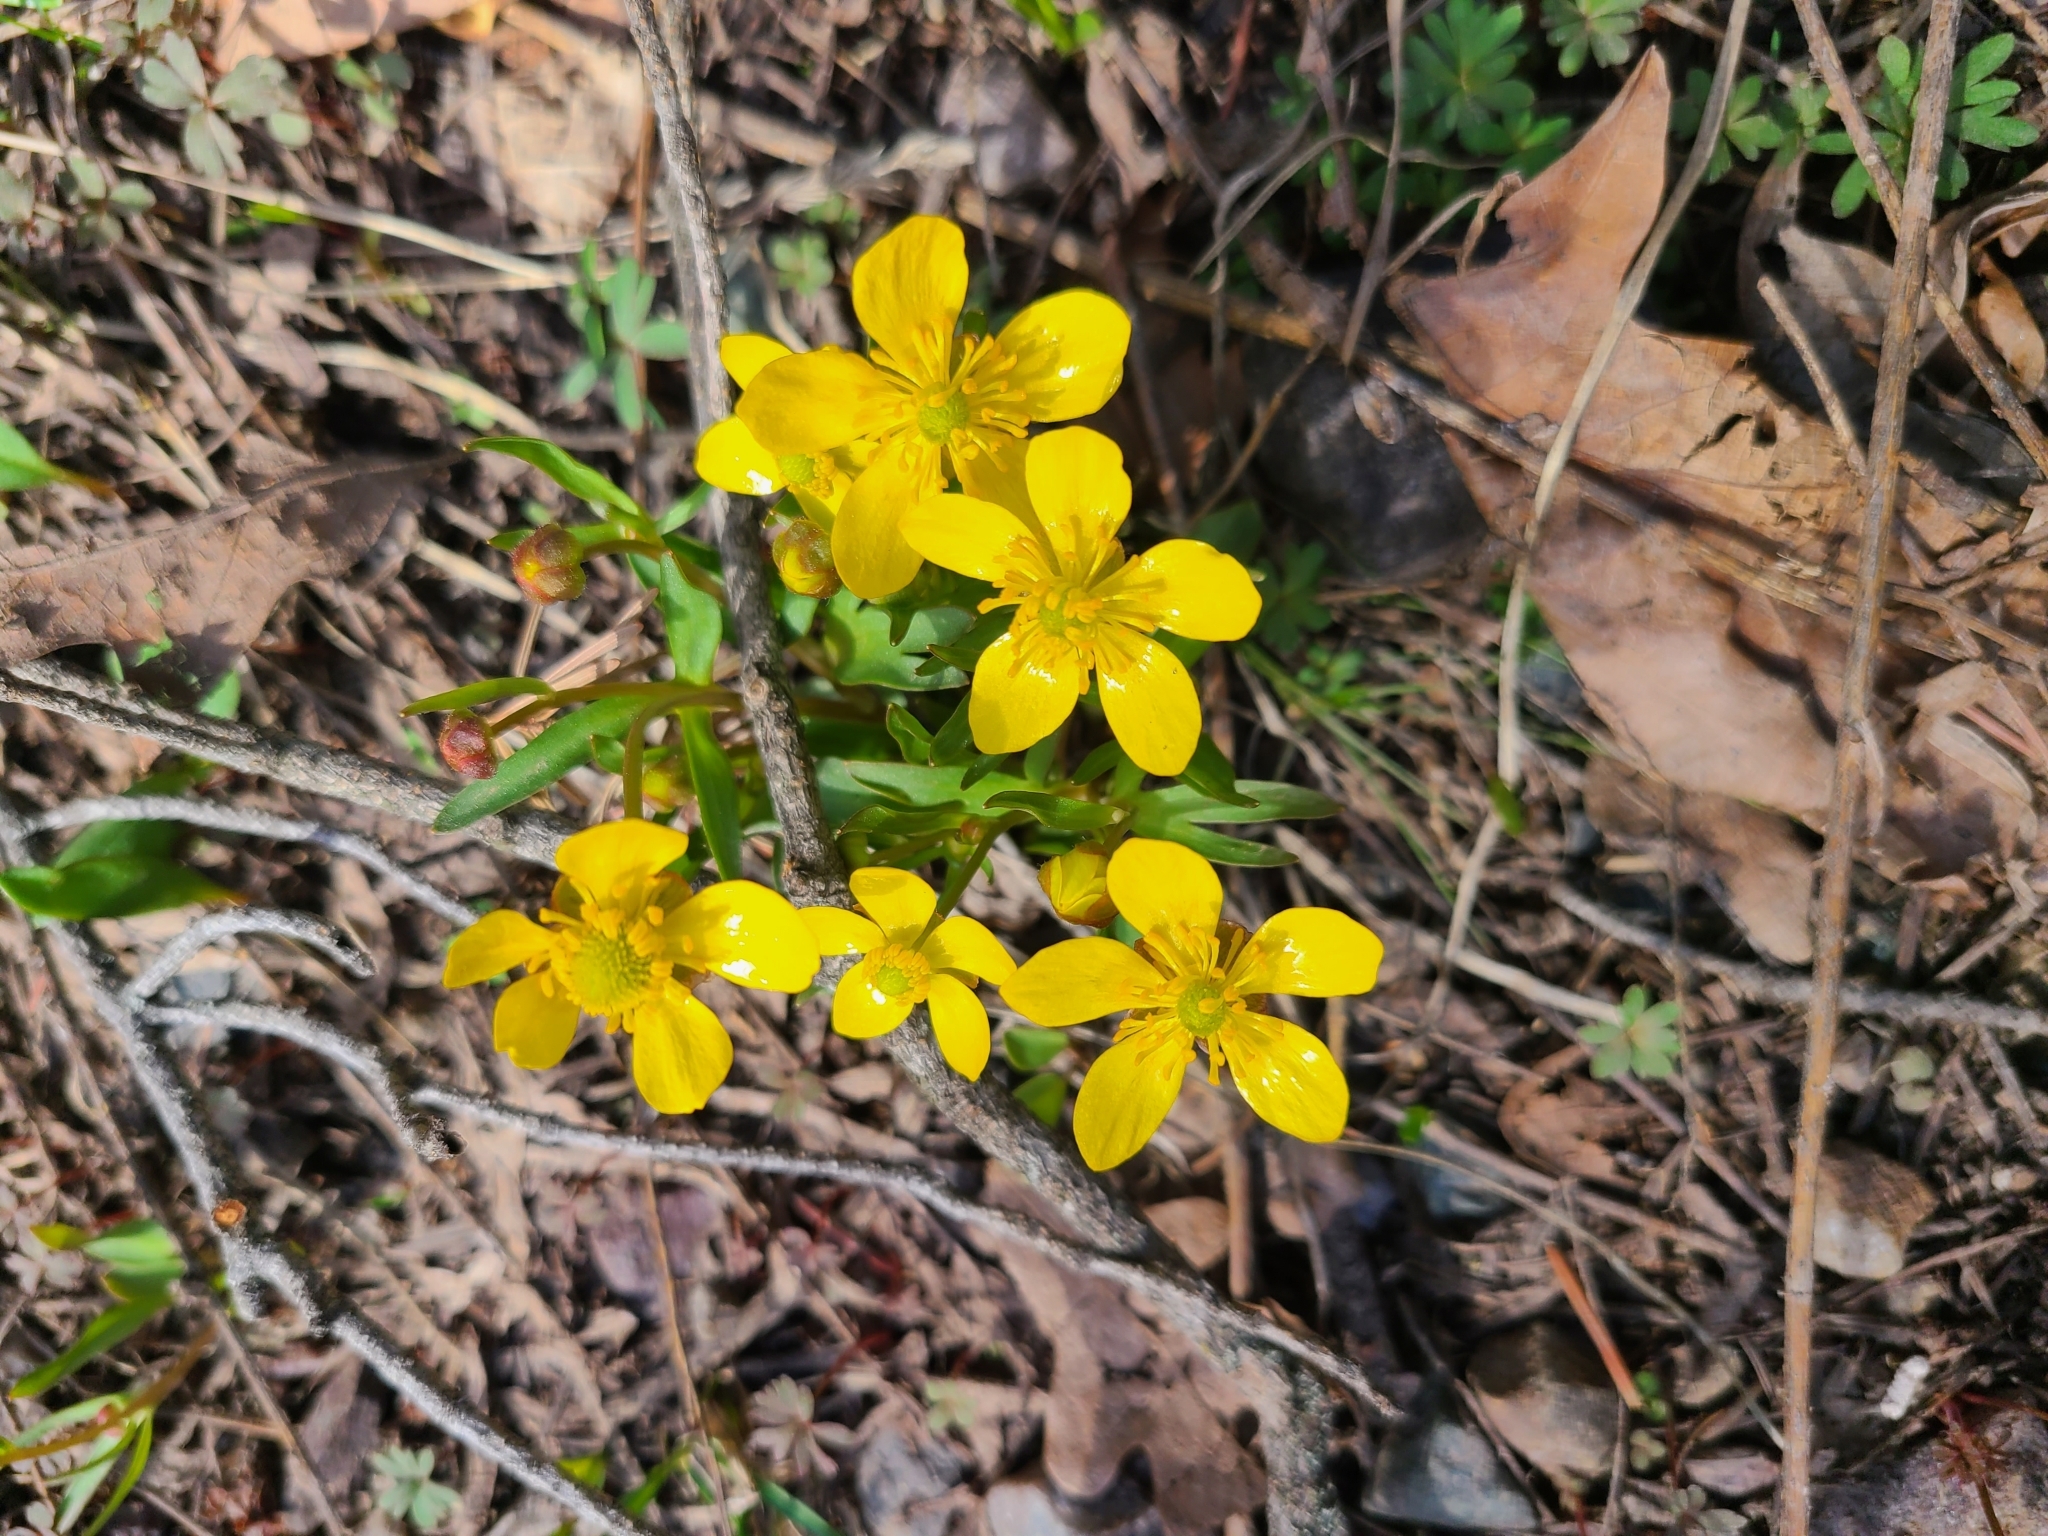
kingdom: Plantae
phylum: Tracheophyta
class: Magnoliopsida
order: Ranunculales
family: Ranunculaceae
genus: Ranunculus
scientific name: Ranunculus glaberrimus
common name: Sagebrush buttercup
